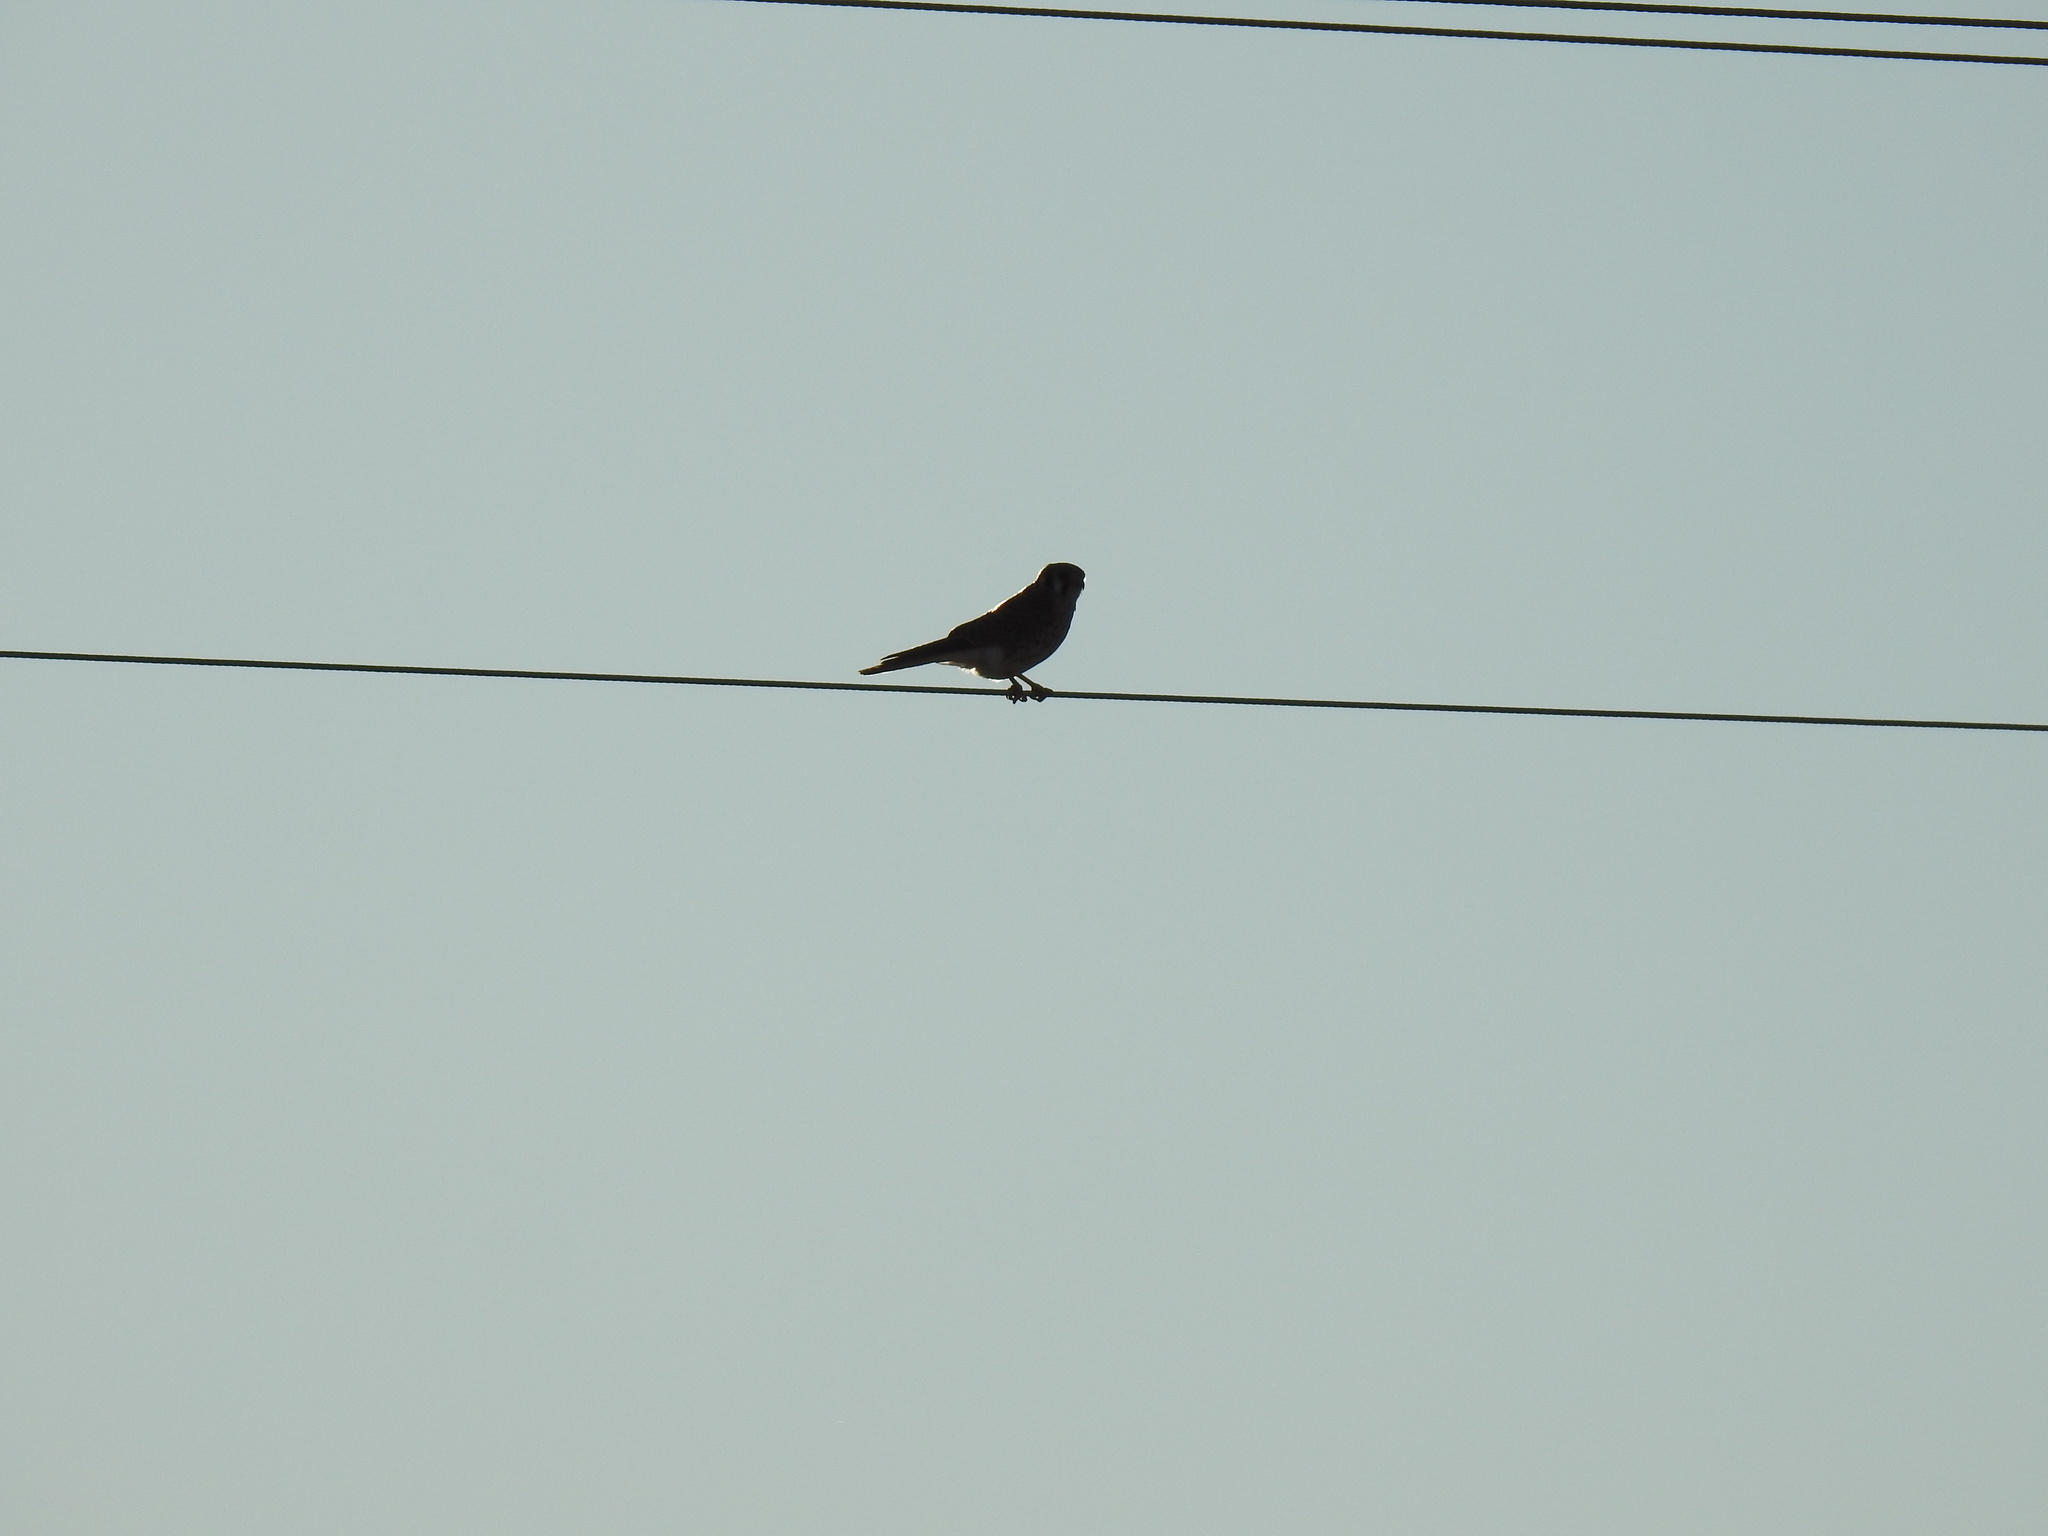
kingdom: Animalia
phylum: Chordata
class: Aves
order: Falconiformes
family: Falconidae
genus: Falco
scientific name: Falco sparverius
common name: American kestrel
